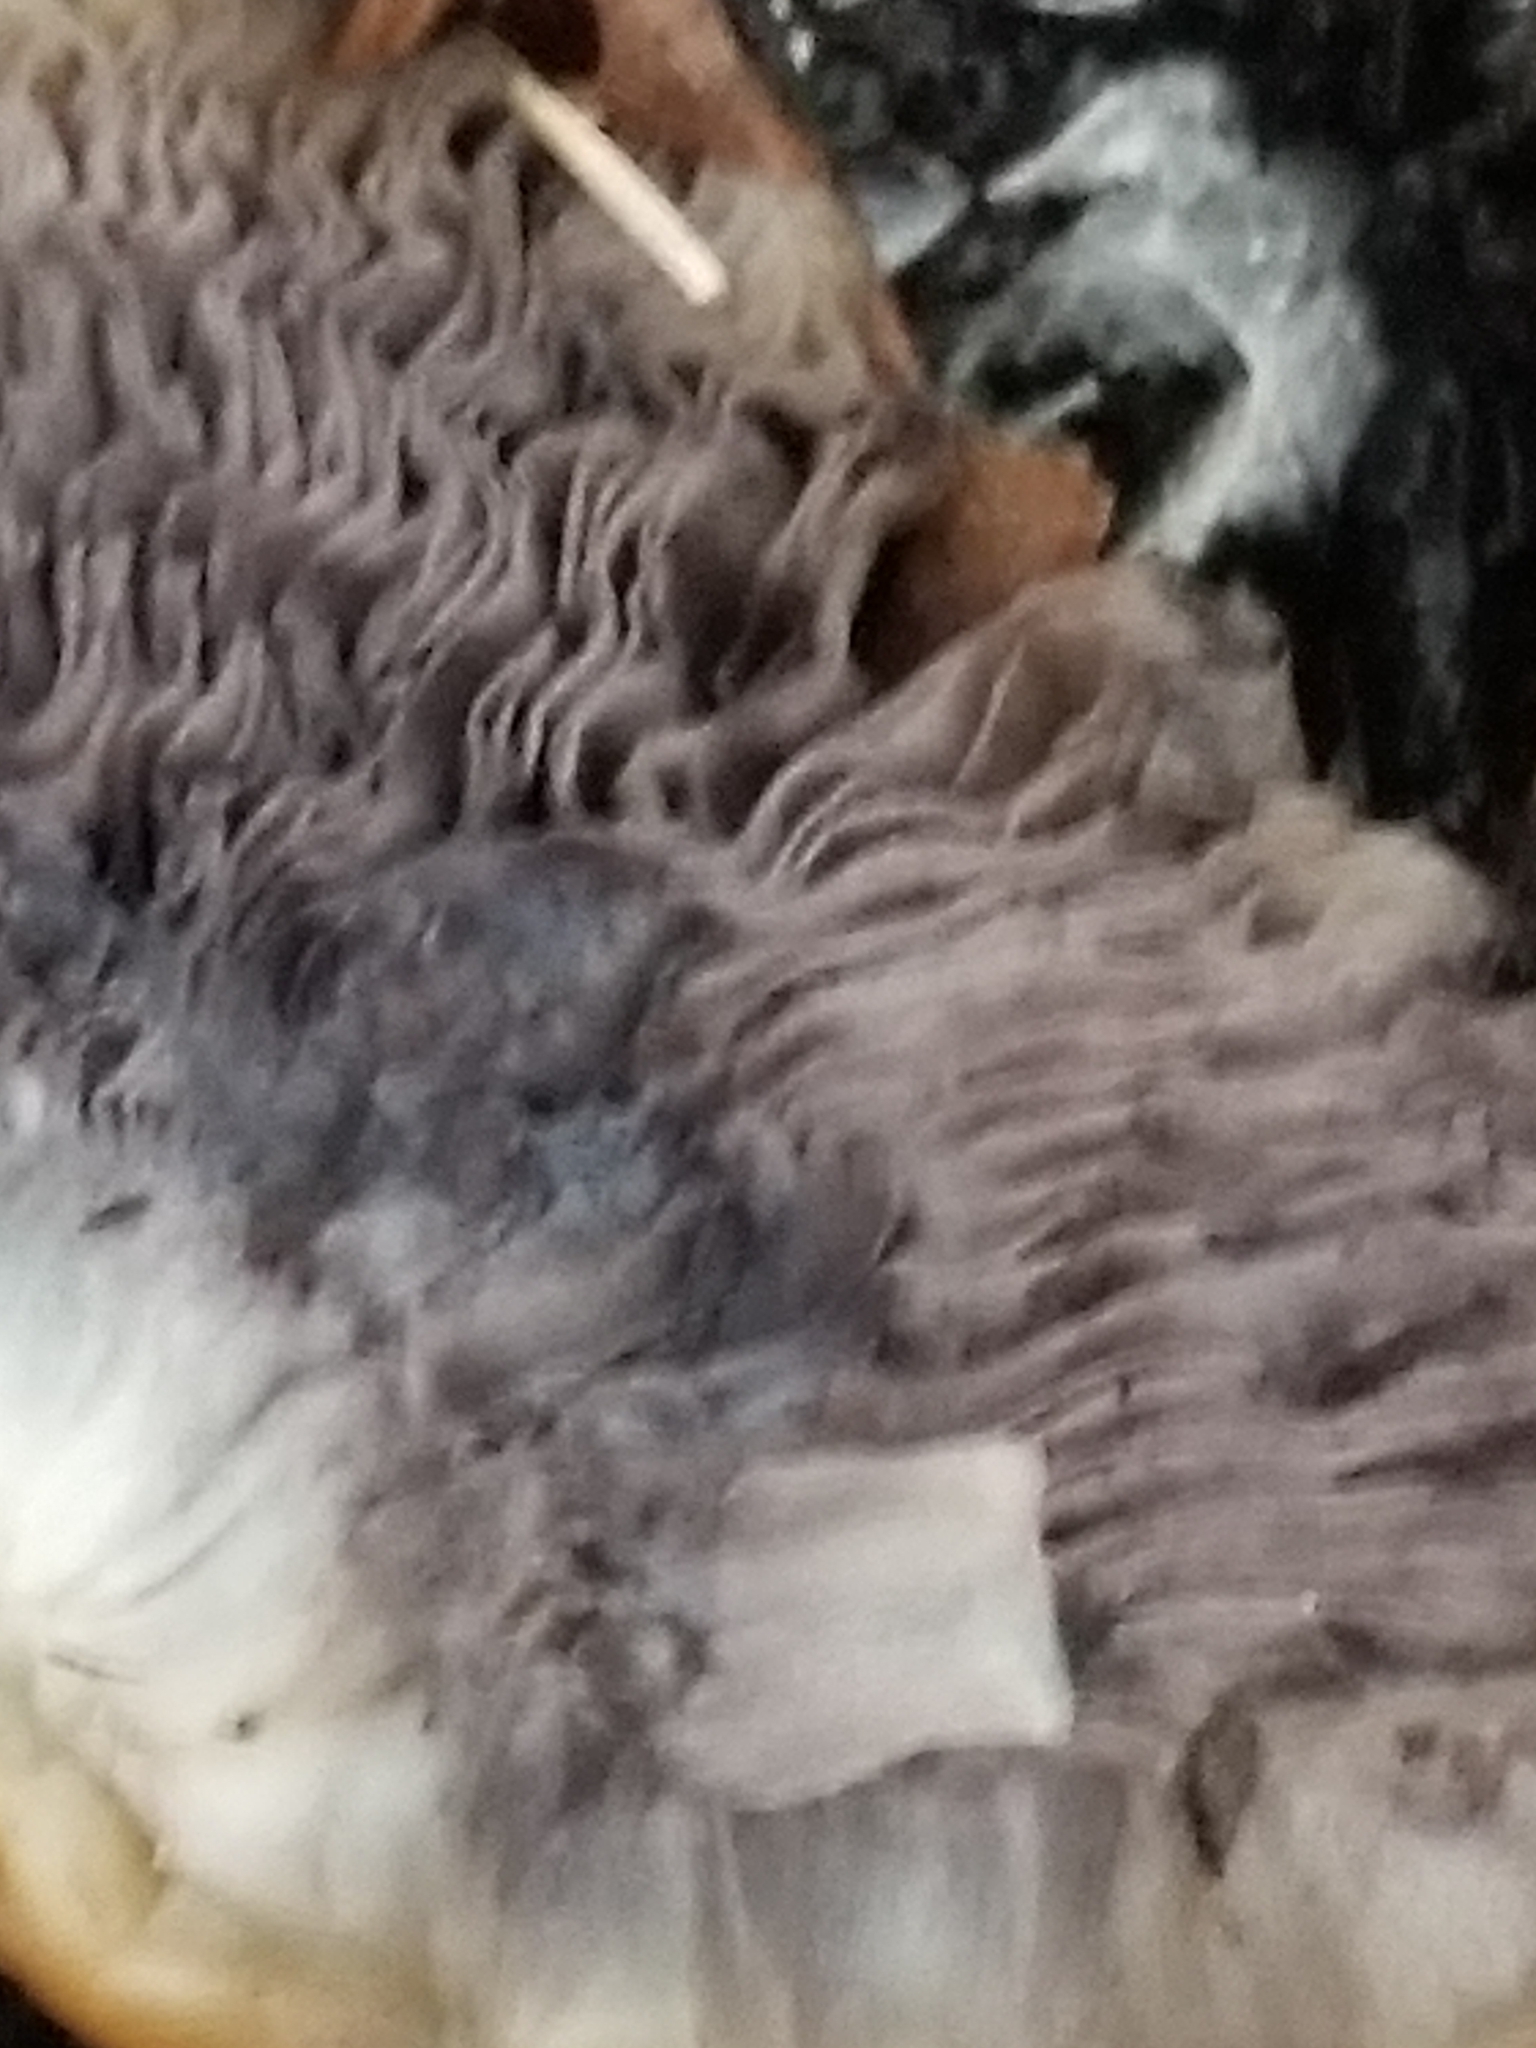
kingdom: Fungi
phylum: Basidiomycota
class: Agaricomycetes
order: Agaricales
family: Strophariaceae
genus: Stropharia
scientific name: Stropharia rugosoannulata
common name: Wine roundhead
